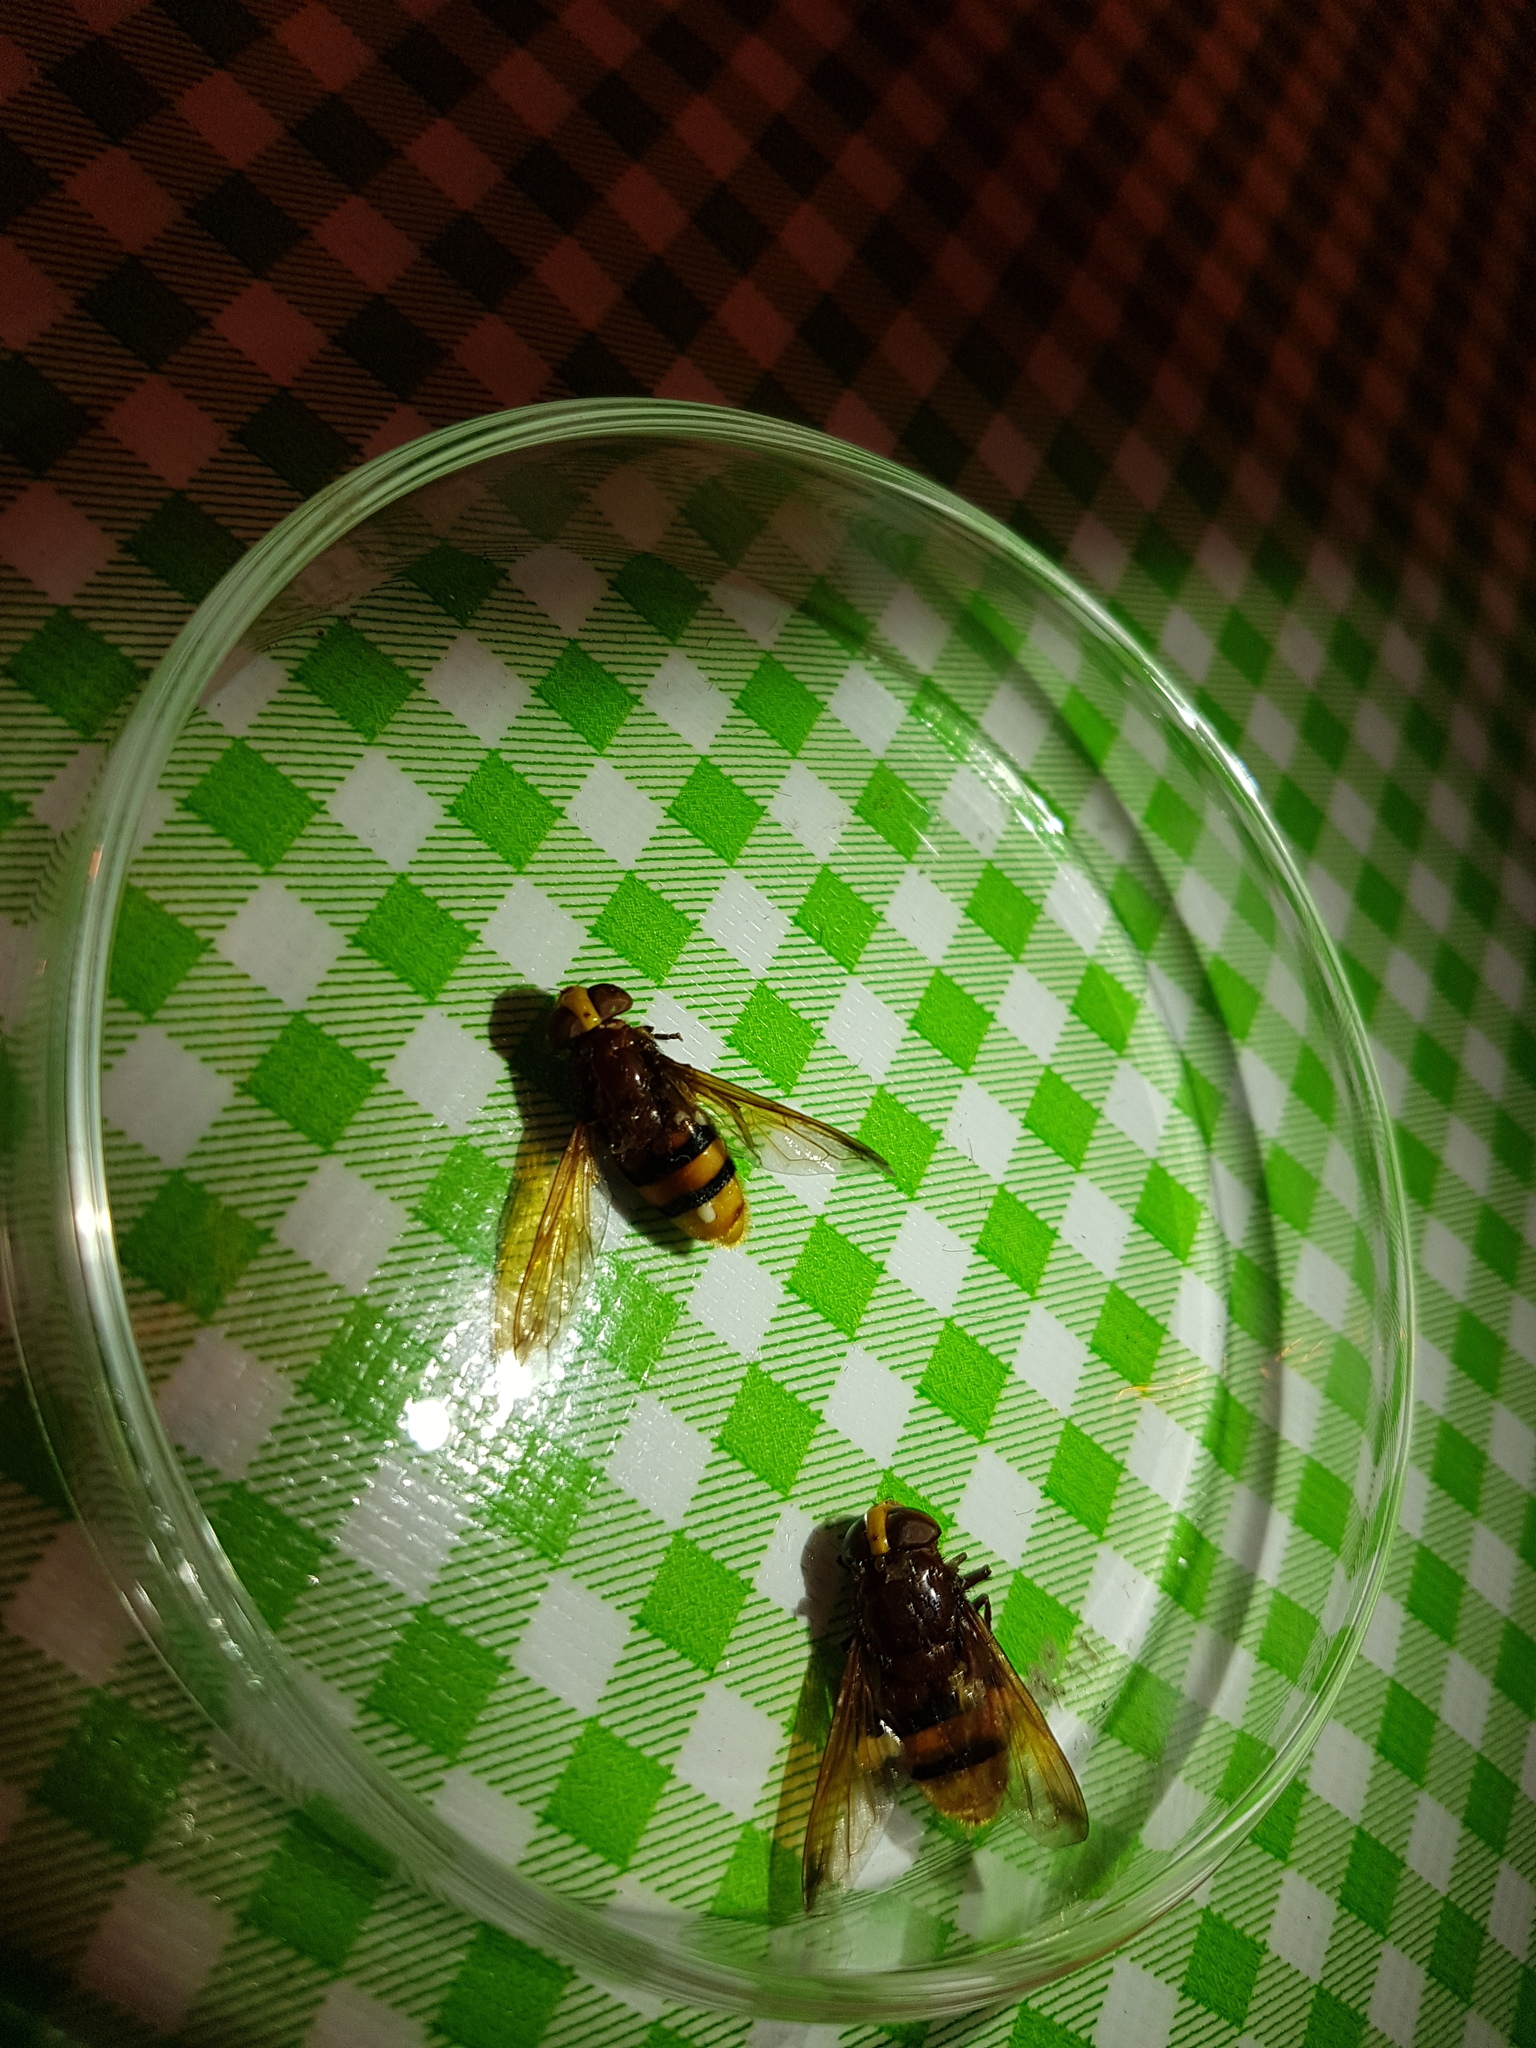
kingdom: Animalia
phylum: Arthropoda
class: Insecta
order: Diptera
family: Syrphidae
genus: Volucella
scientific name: Volucella zonaria
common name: Hornet hoverfly
